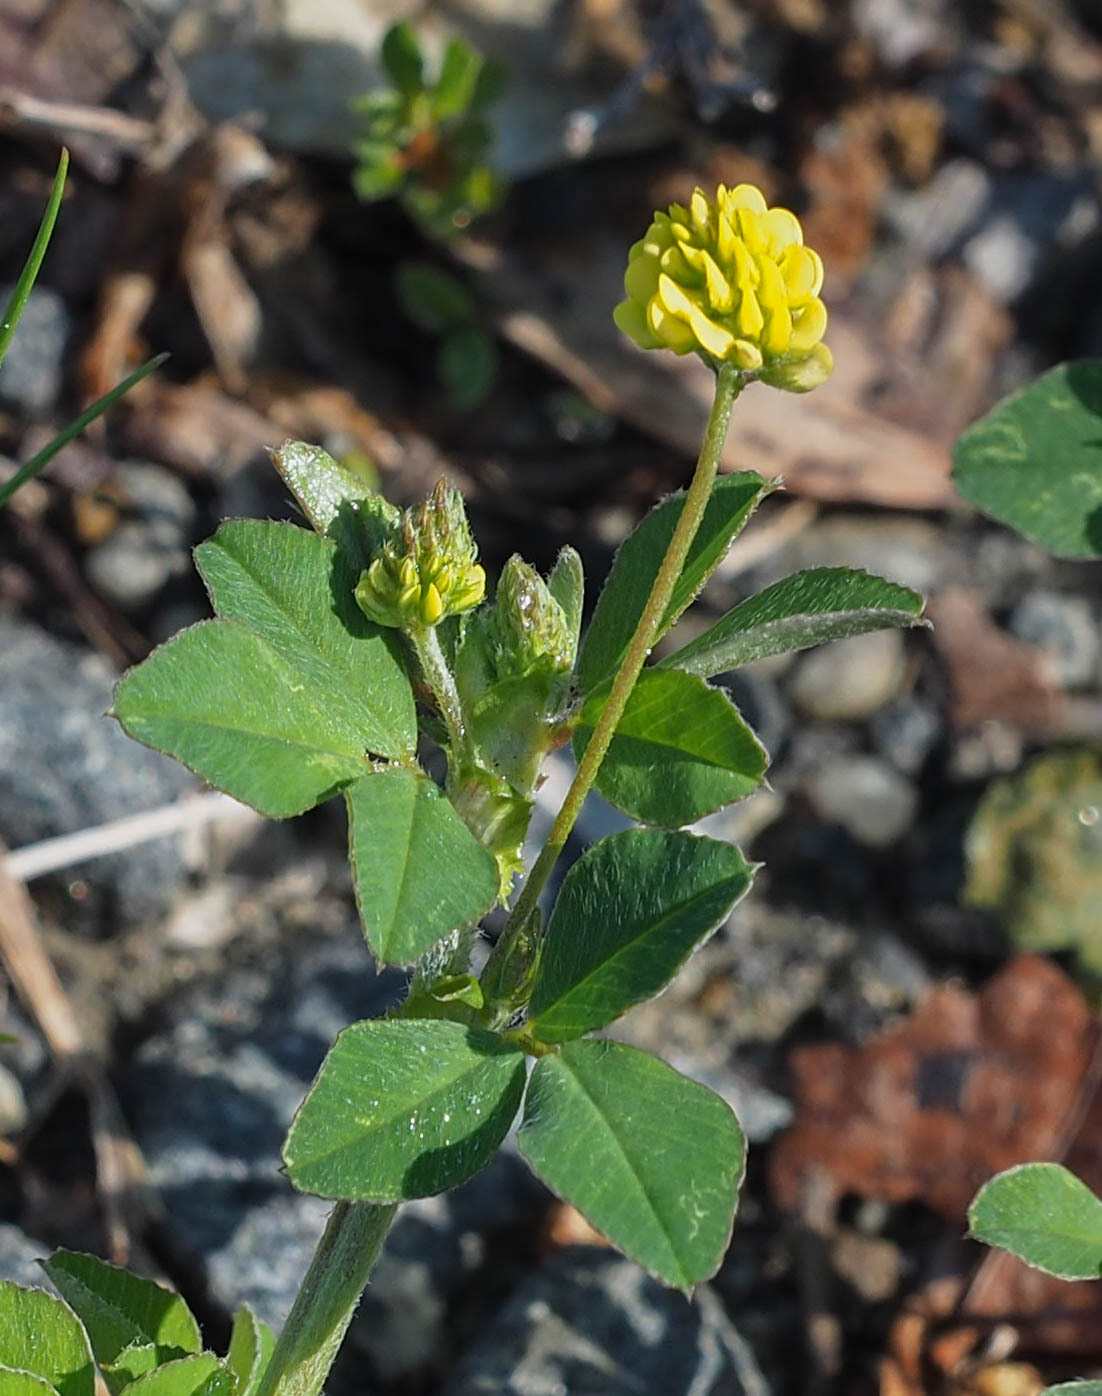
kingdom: Plantae
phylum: Tracheophyta
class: Magnoliopsida
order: Fabales
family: Fabaceae
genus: Medicago
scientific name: Medicago lupulina
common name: Black medick
